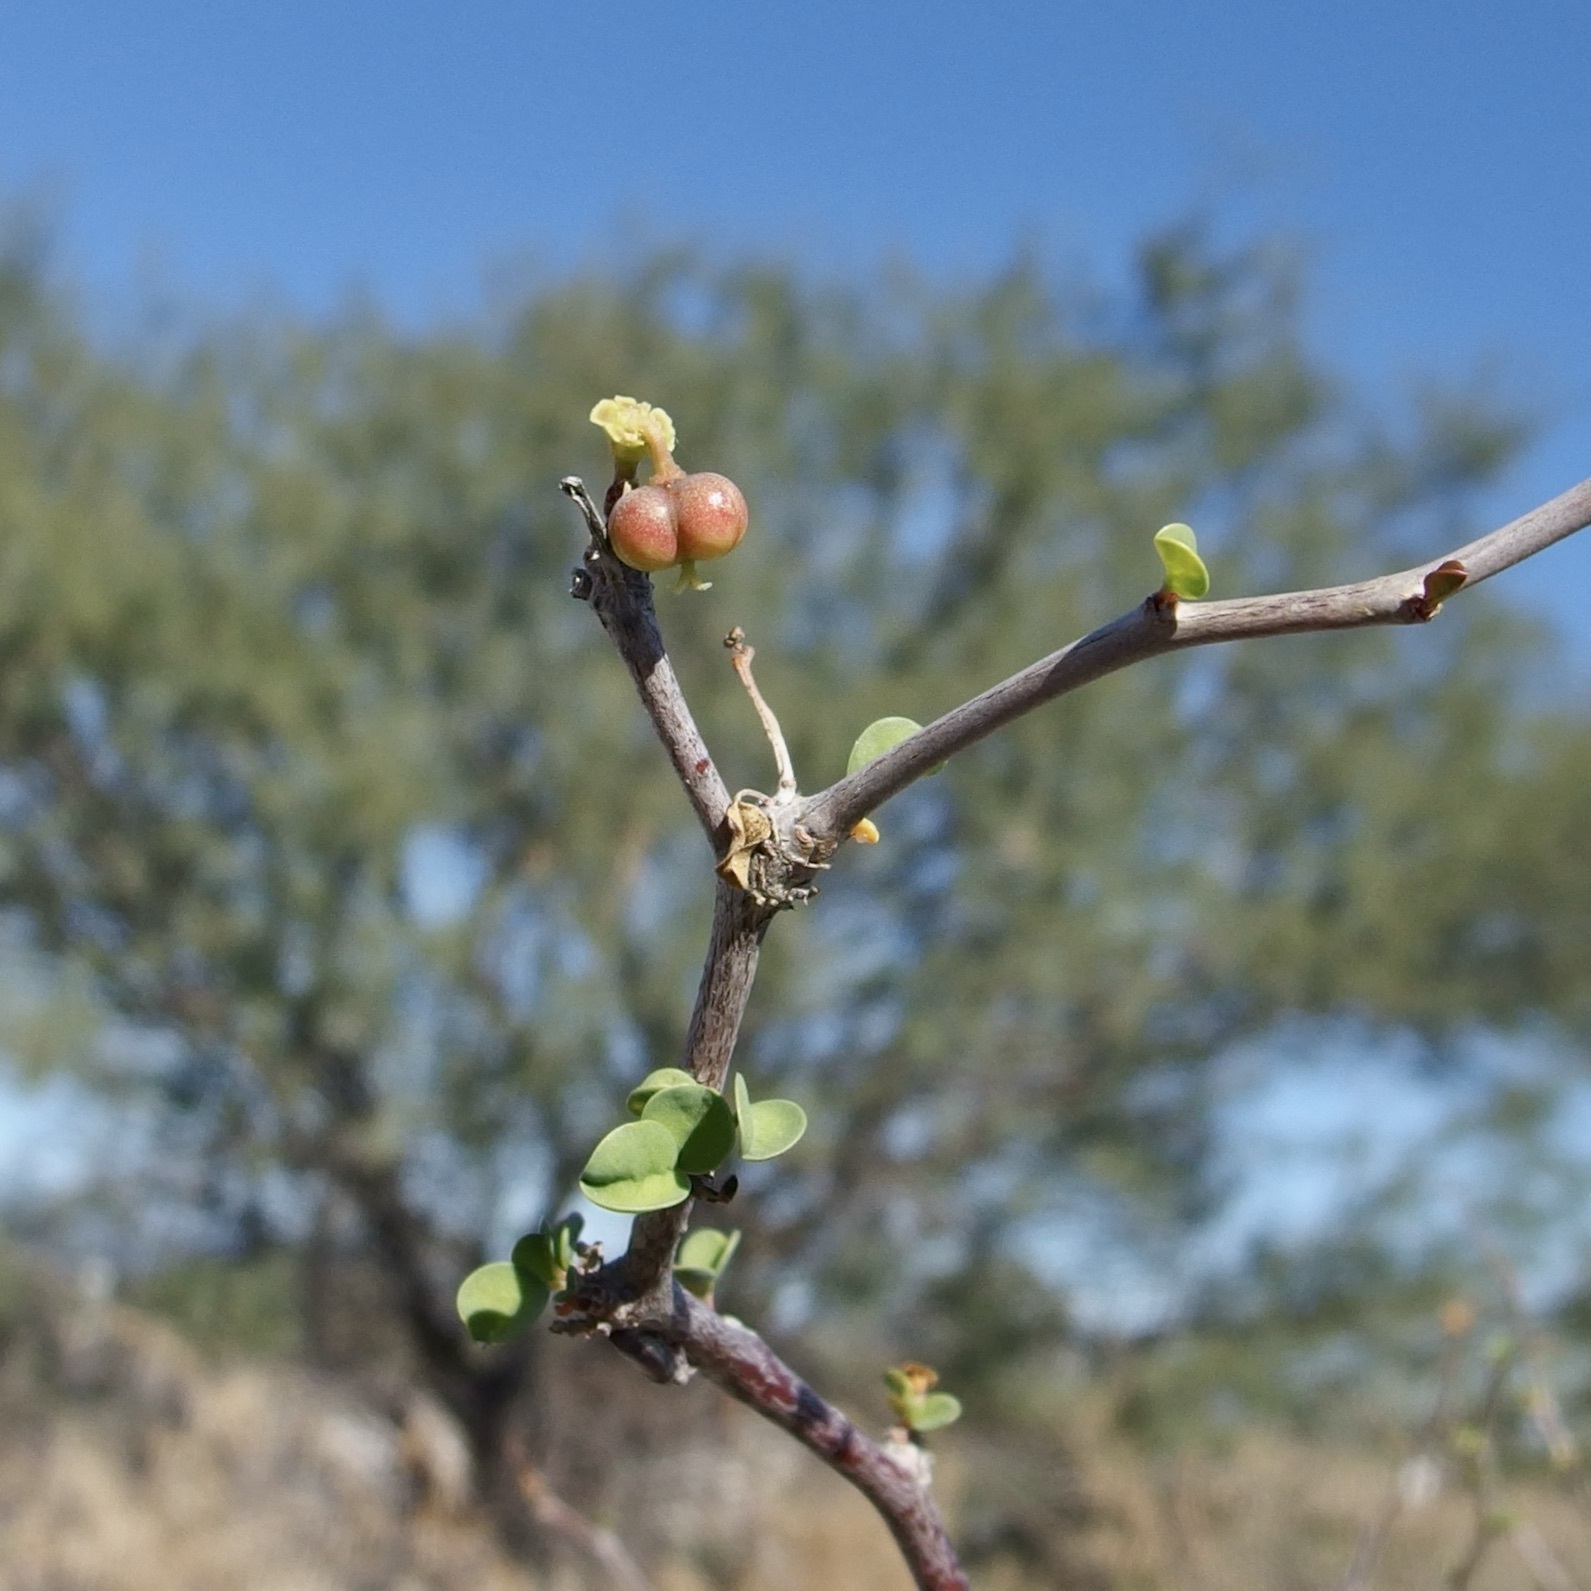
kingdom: Plantae
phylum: Tracheophyta
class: Magnoliopsida
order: Malpighiales
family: Euphorbiaceae
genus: Euphorbia
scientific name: Euphorbia californica
